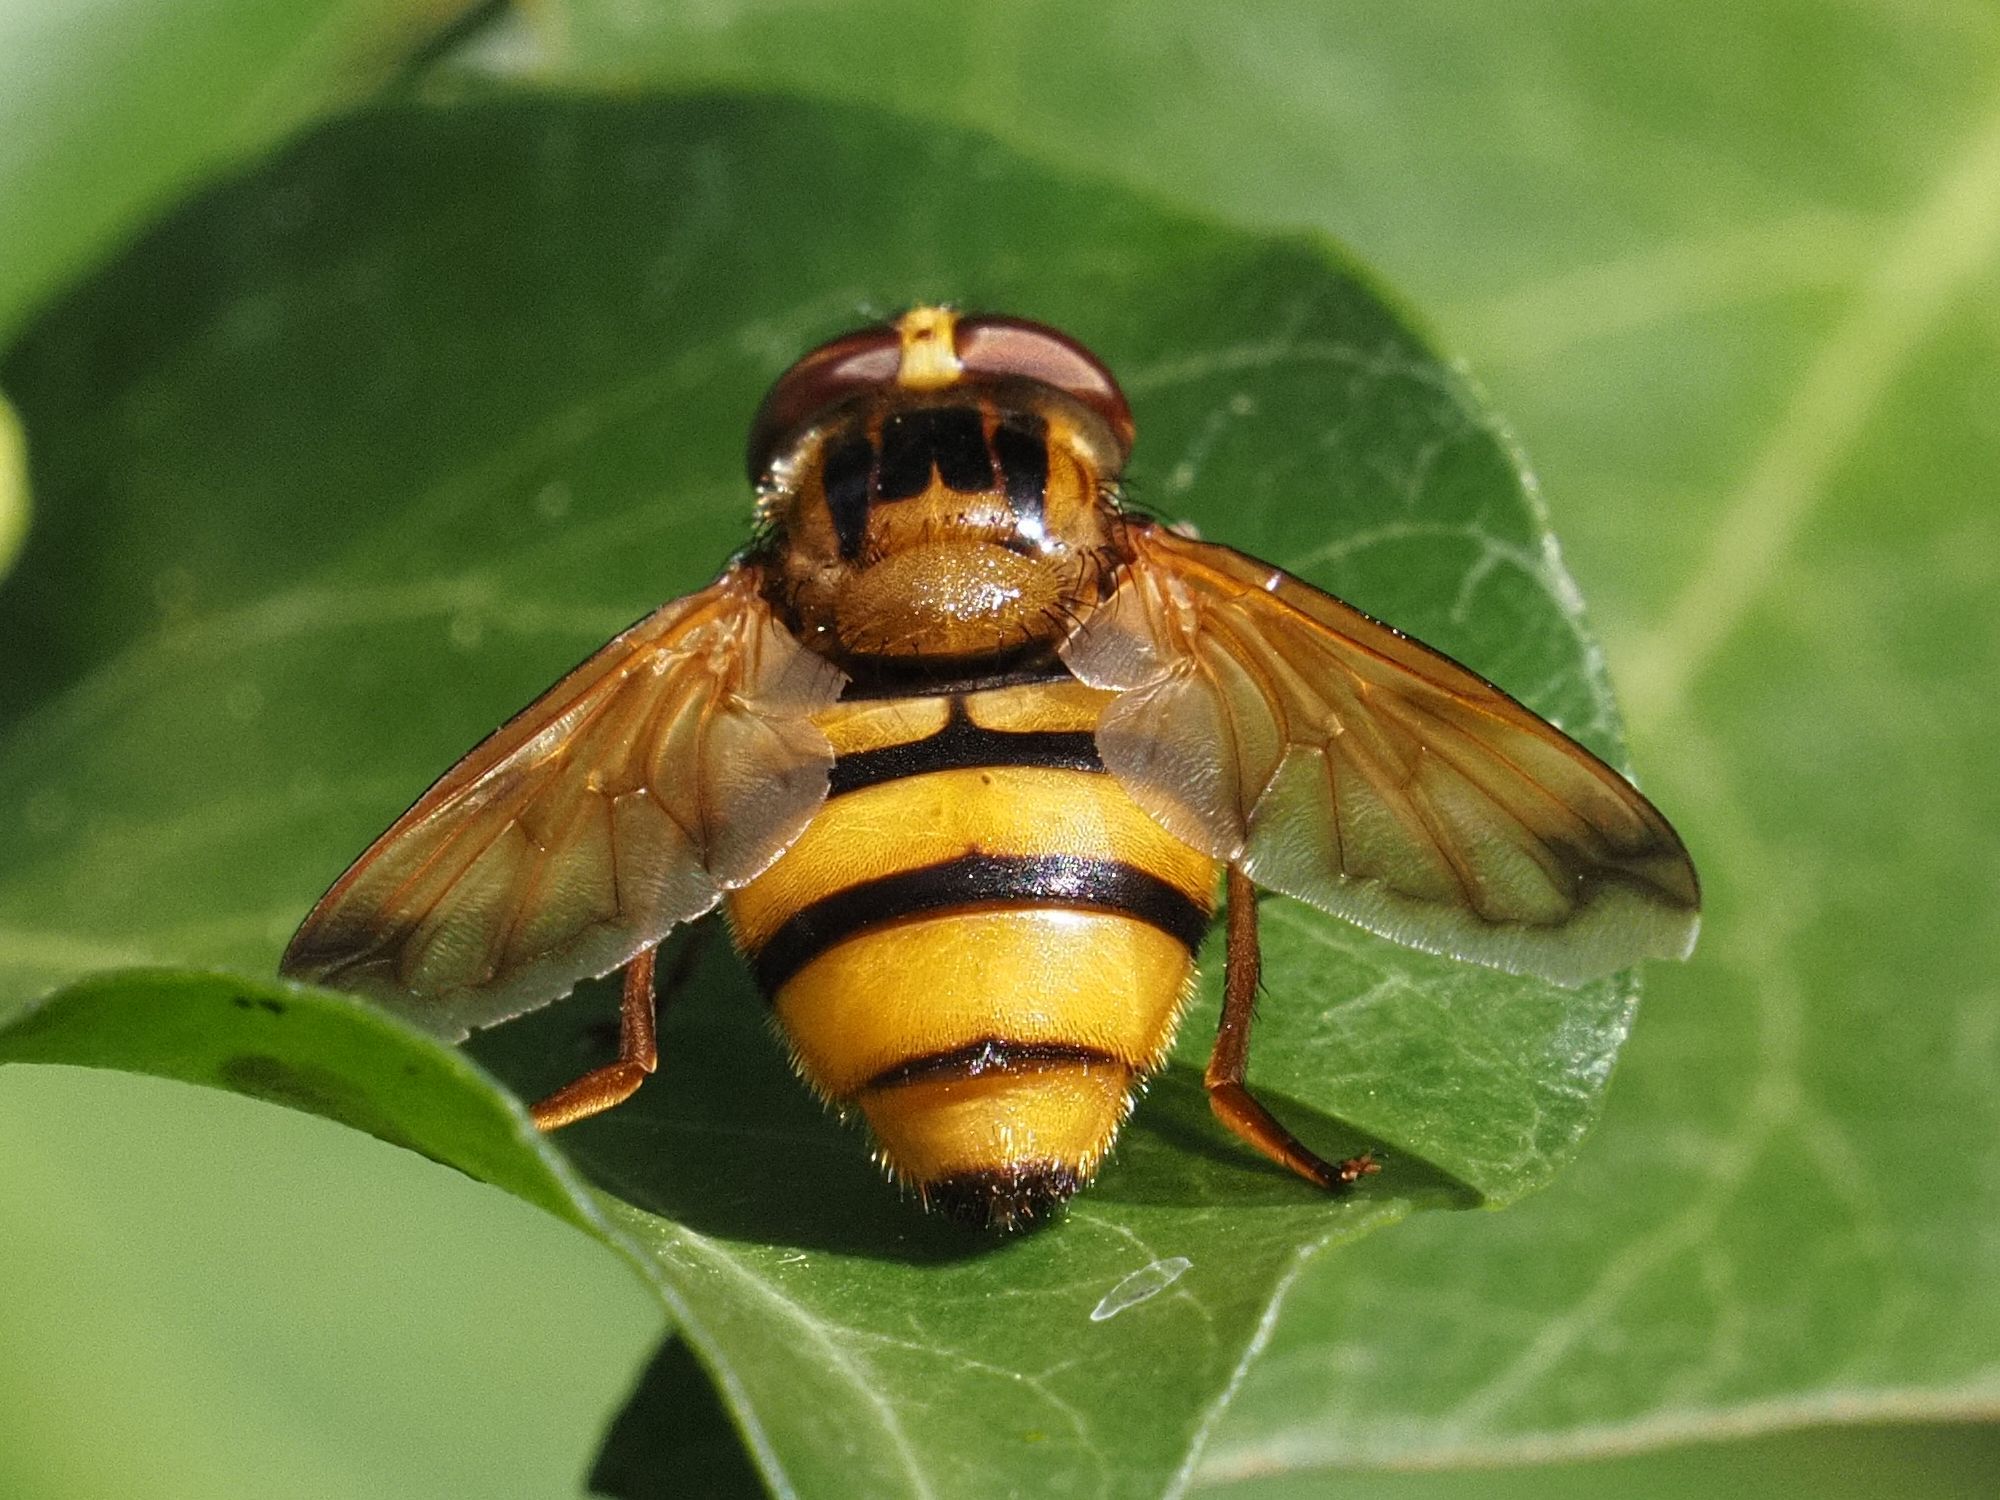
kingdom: Animalia
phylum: Arthropoda
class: Insecta
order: Diptera
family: Syrphidae
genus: Volucella
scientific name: Volucella inanis
